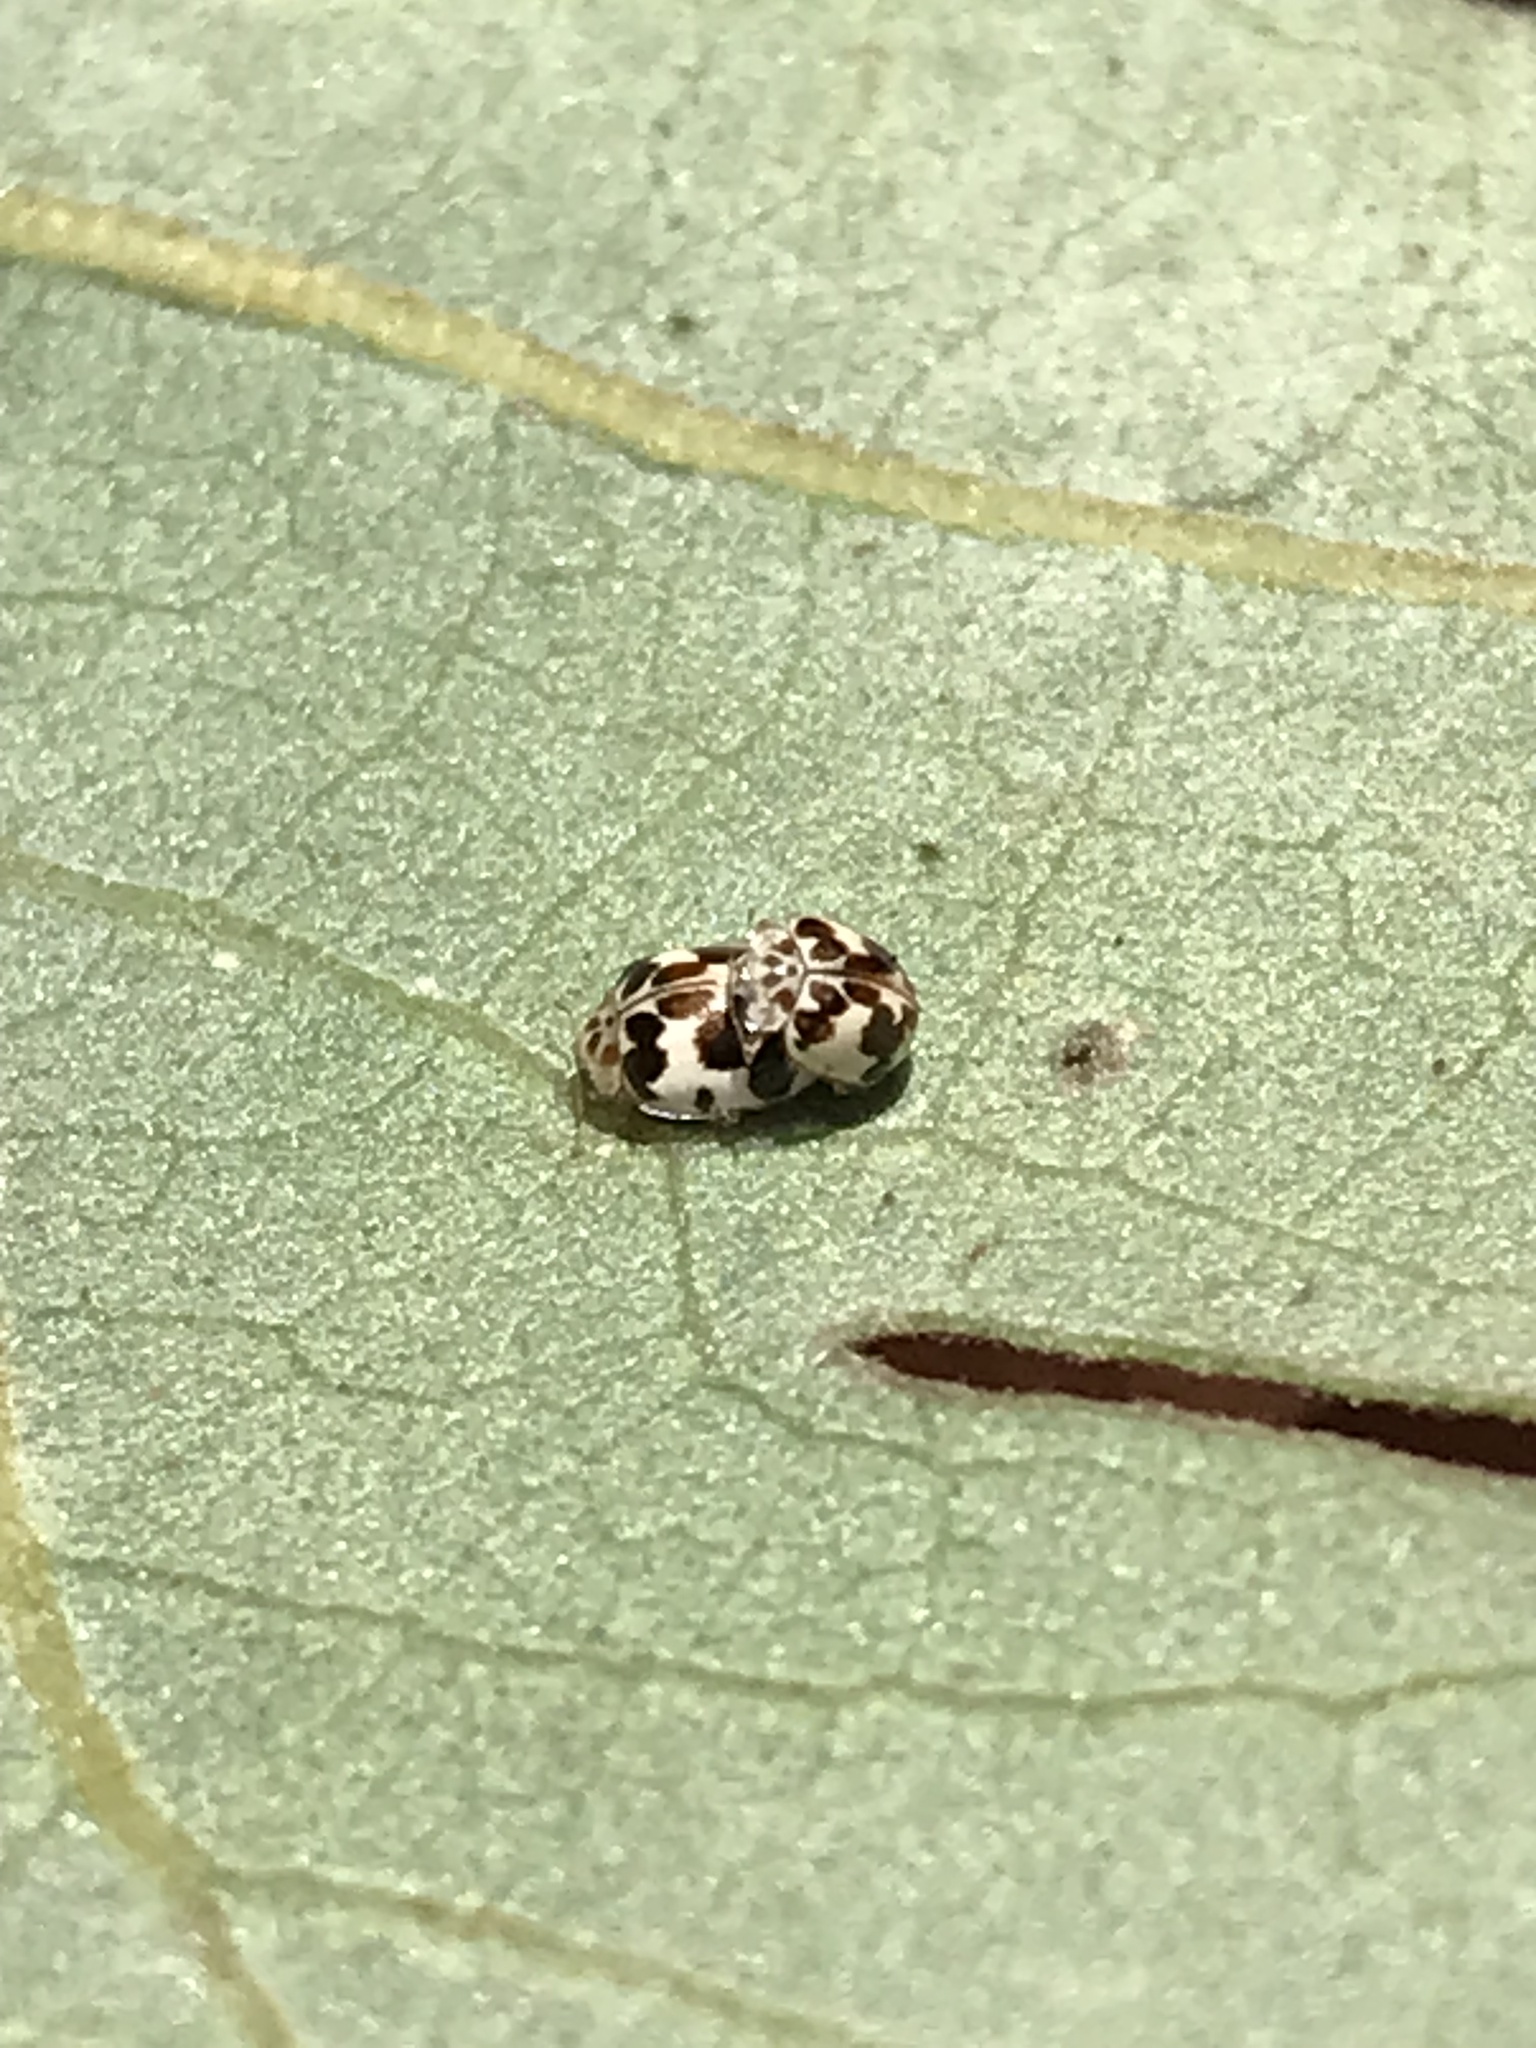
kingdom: Animalia
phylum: Arthropoda
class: Insecta
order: Coleoptera
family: Coccinellidae
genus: Psyllobora
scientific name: Psyllobora borealis
